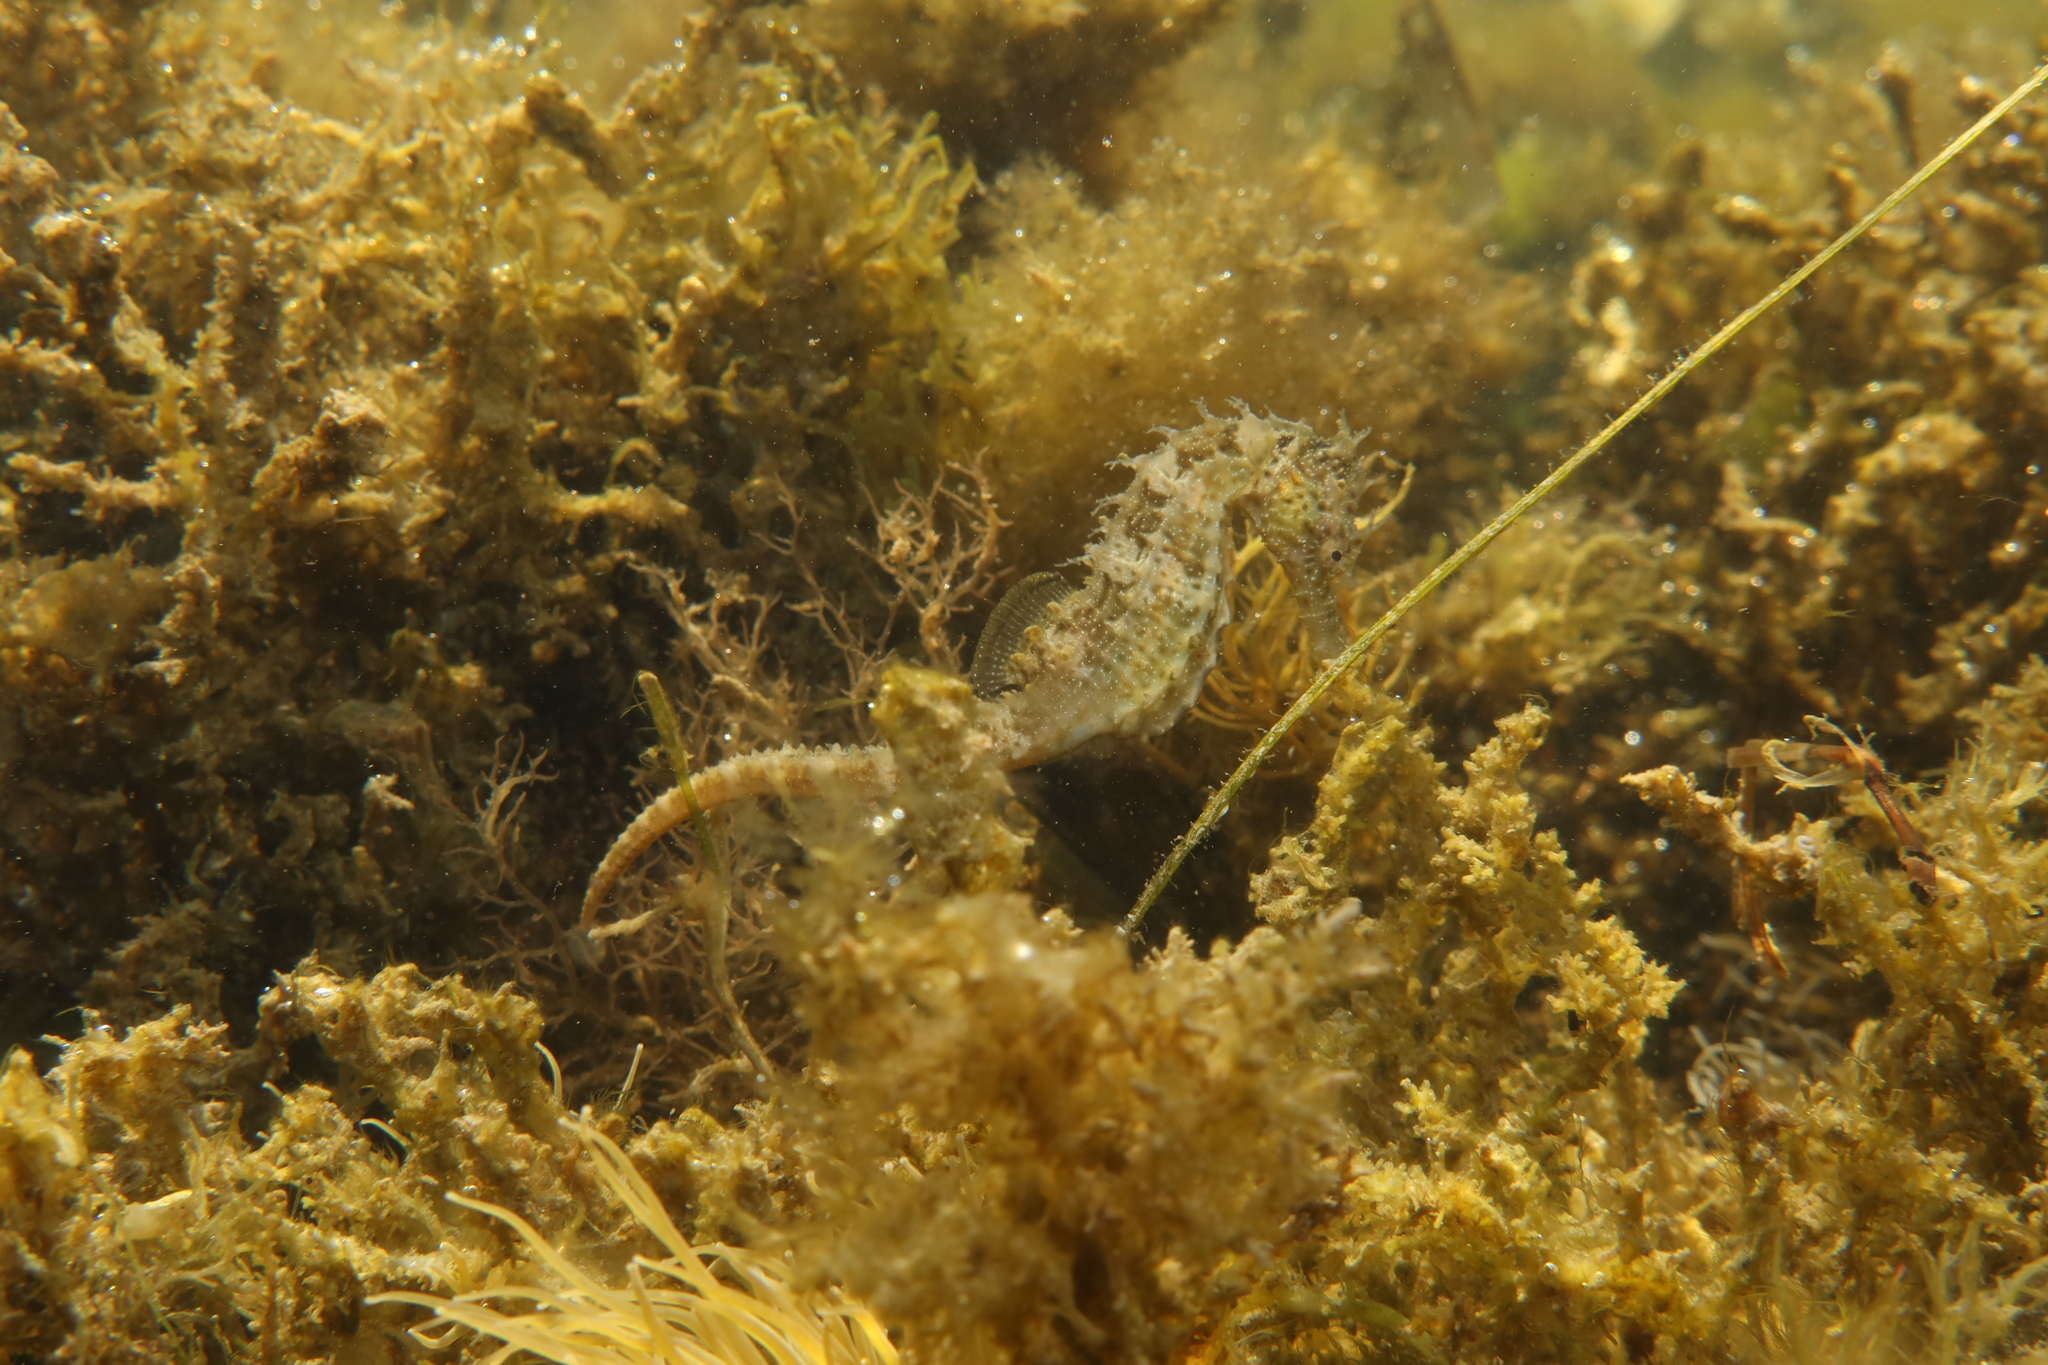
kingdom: Animalia
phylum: Chordata
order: Syngnathiformes
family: Syngnathidae
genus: Hippocampus
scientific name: Hippocampus guttulatus
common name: Long-snouted seahorse
